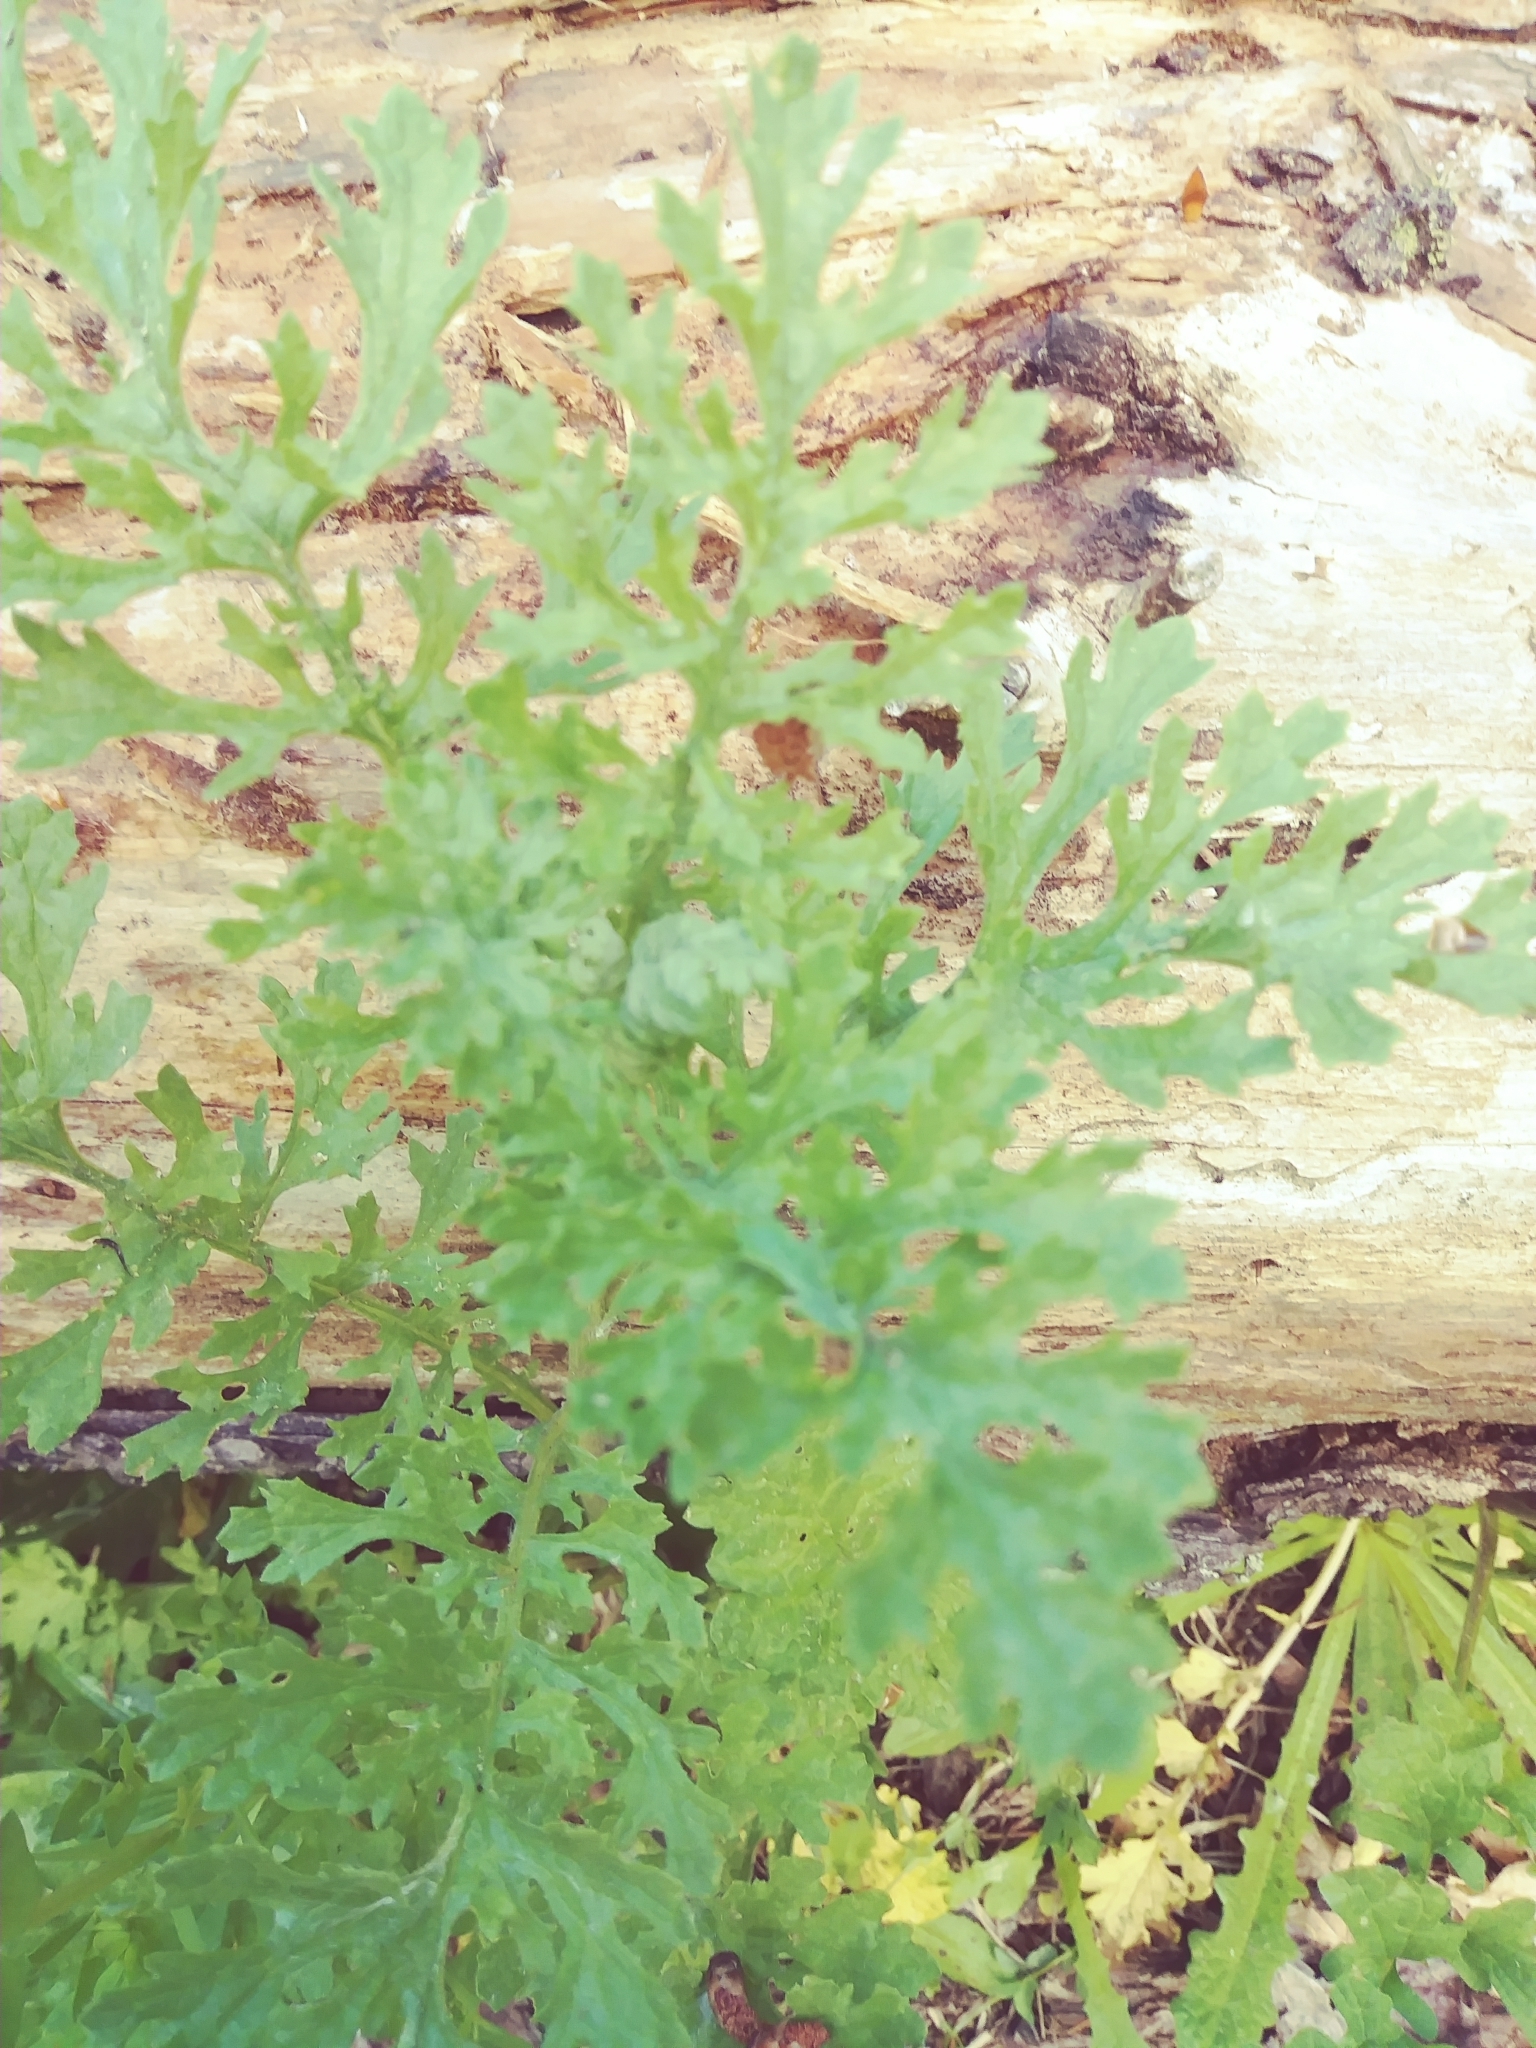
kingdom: Plantae
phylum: Tracheophyta
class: Magnoliopsida
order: Asterales
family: Asteraceae
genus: Tanacetum
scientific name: Tanacetum parthenium
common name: Feverfew
